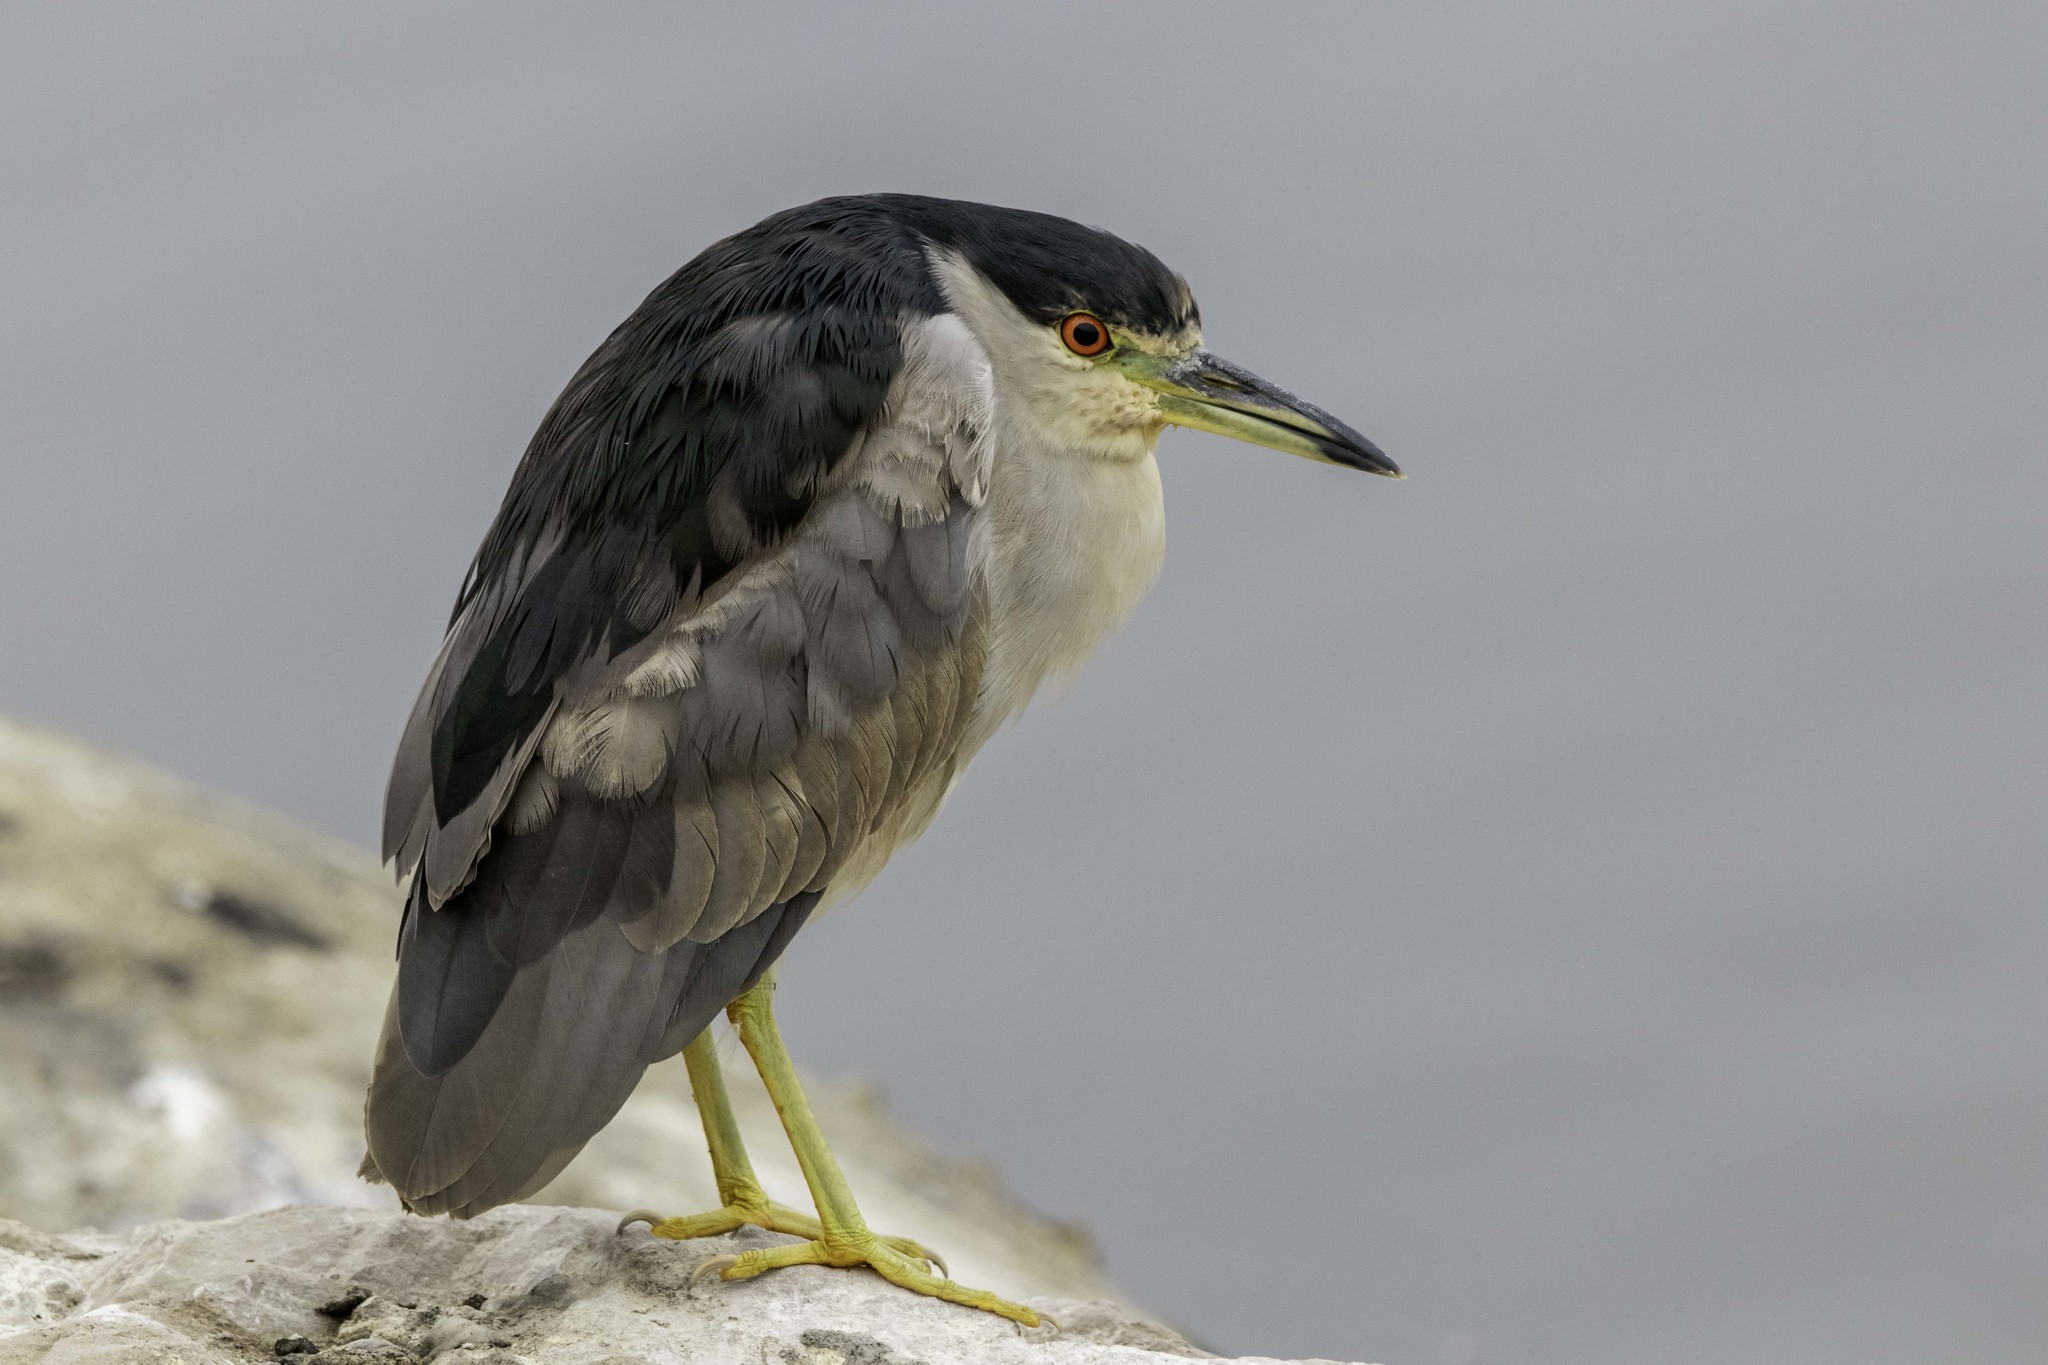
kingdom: Animalia
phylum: Chordata
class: Aves
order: Pelecaniformes
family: Ardeidae
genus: Nycticorax
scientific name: Nycticorax nycticorax
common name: Black-crowned night heron
